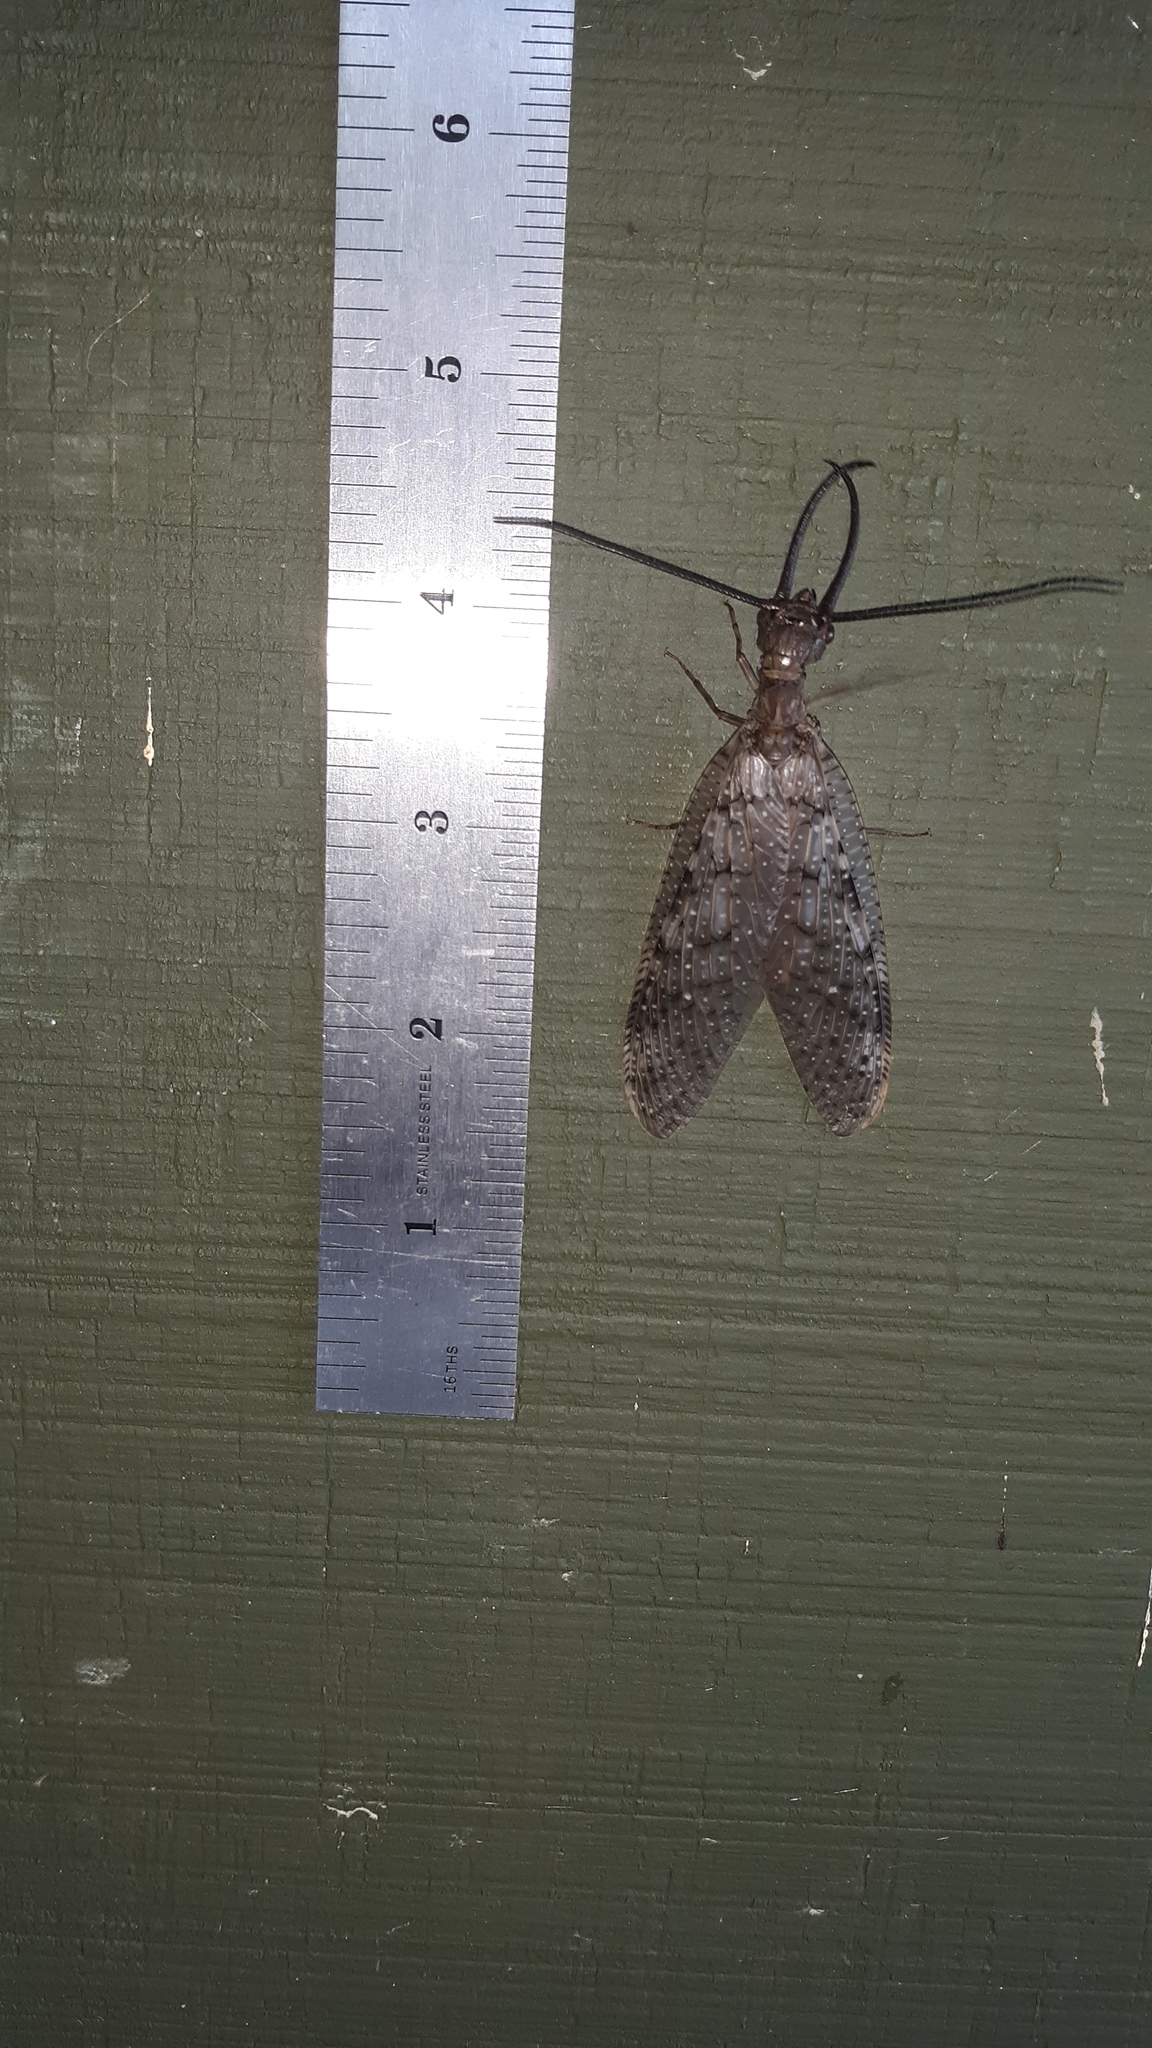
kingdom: Animalia
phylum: Arthropoda
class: Insecta
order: Megaloptera
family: Corydalidae
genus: Corydalus
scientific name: Corydalus cornutus
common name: Dobsonfly
